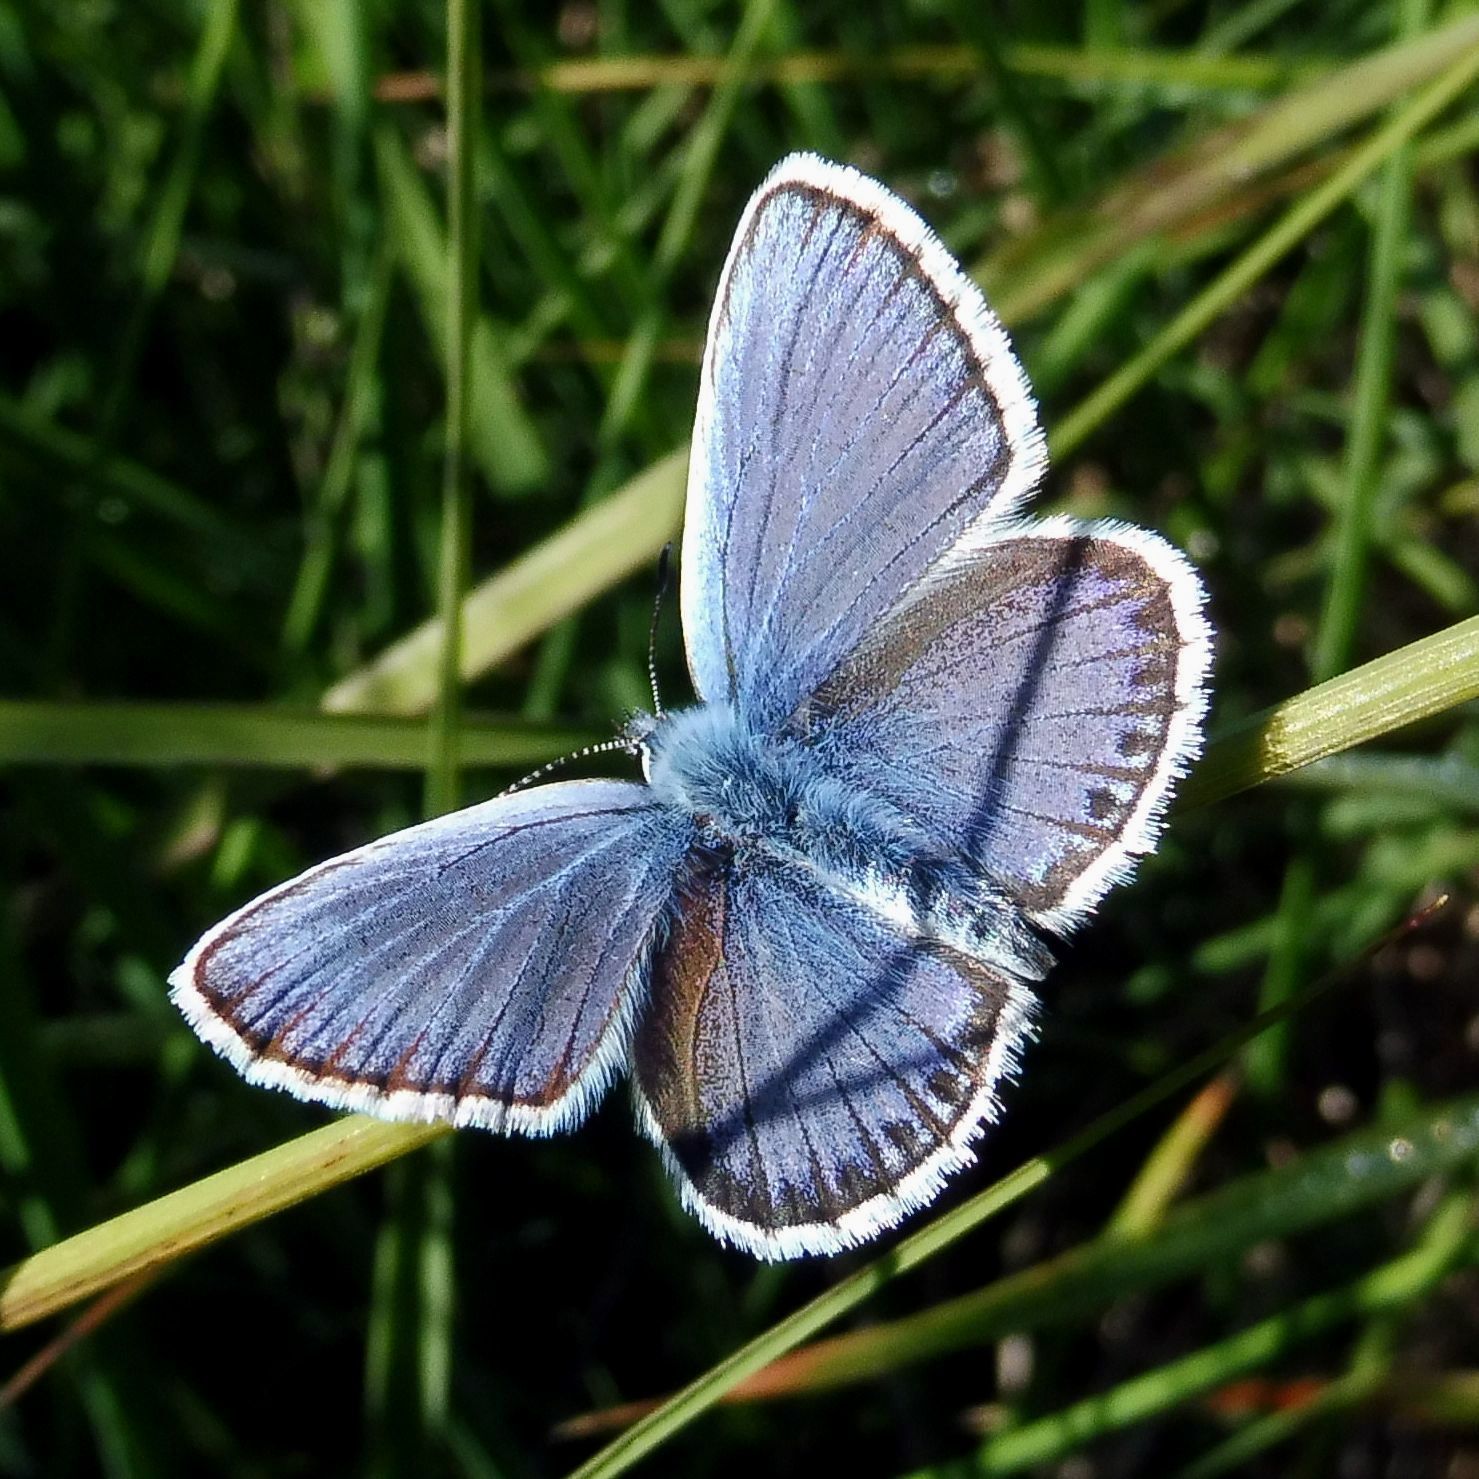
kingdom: Animalia
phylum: Arthropoda
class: Insecta
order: Lepidoptera
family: Lycaenidae
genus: Plebejus
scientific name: Plebejus argus
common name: Silver-studded blue
